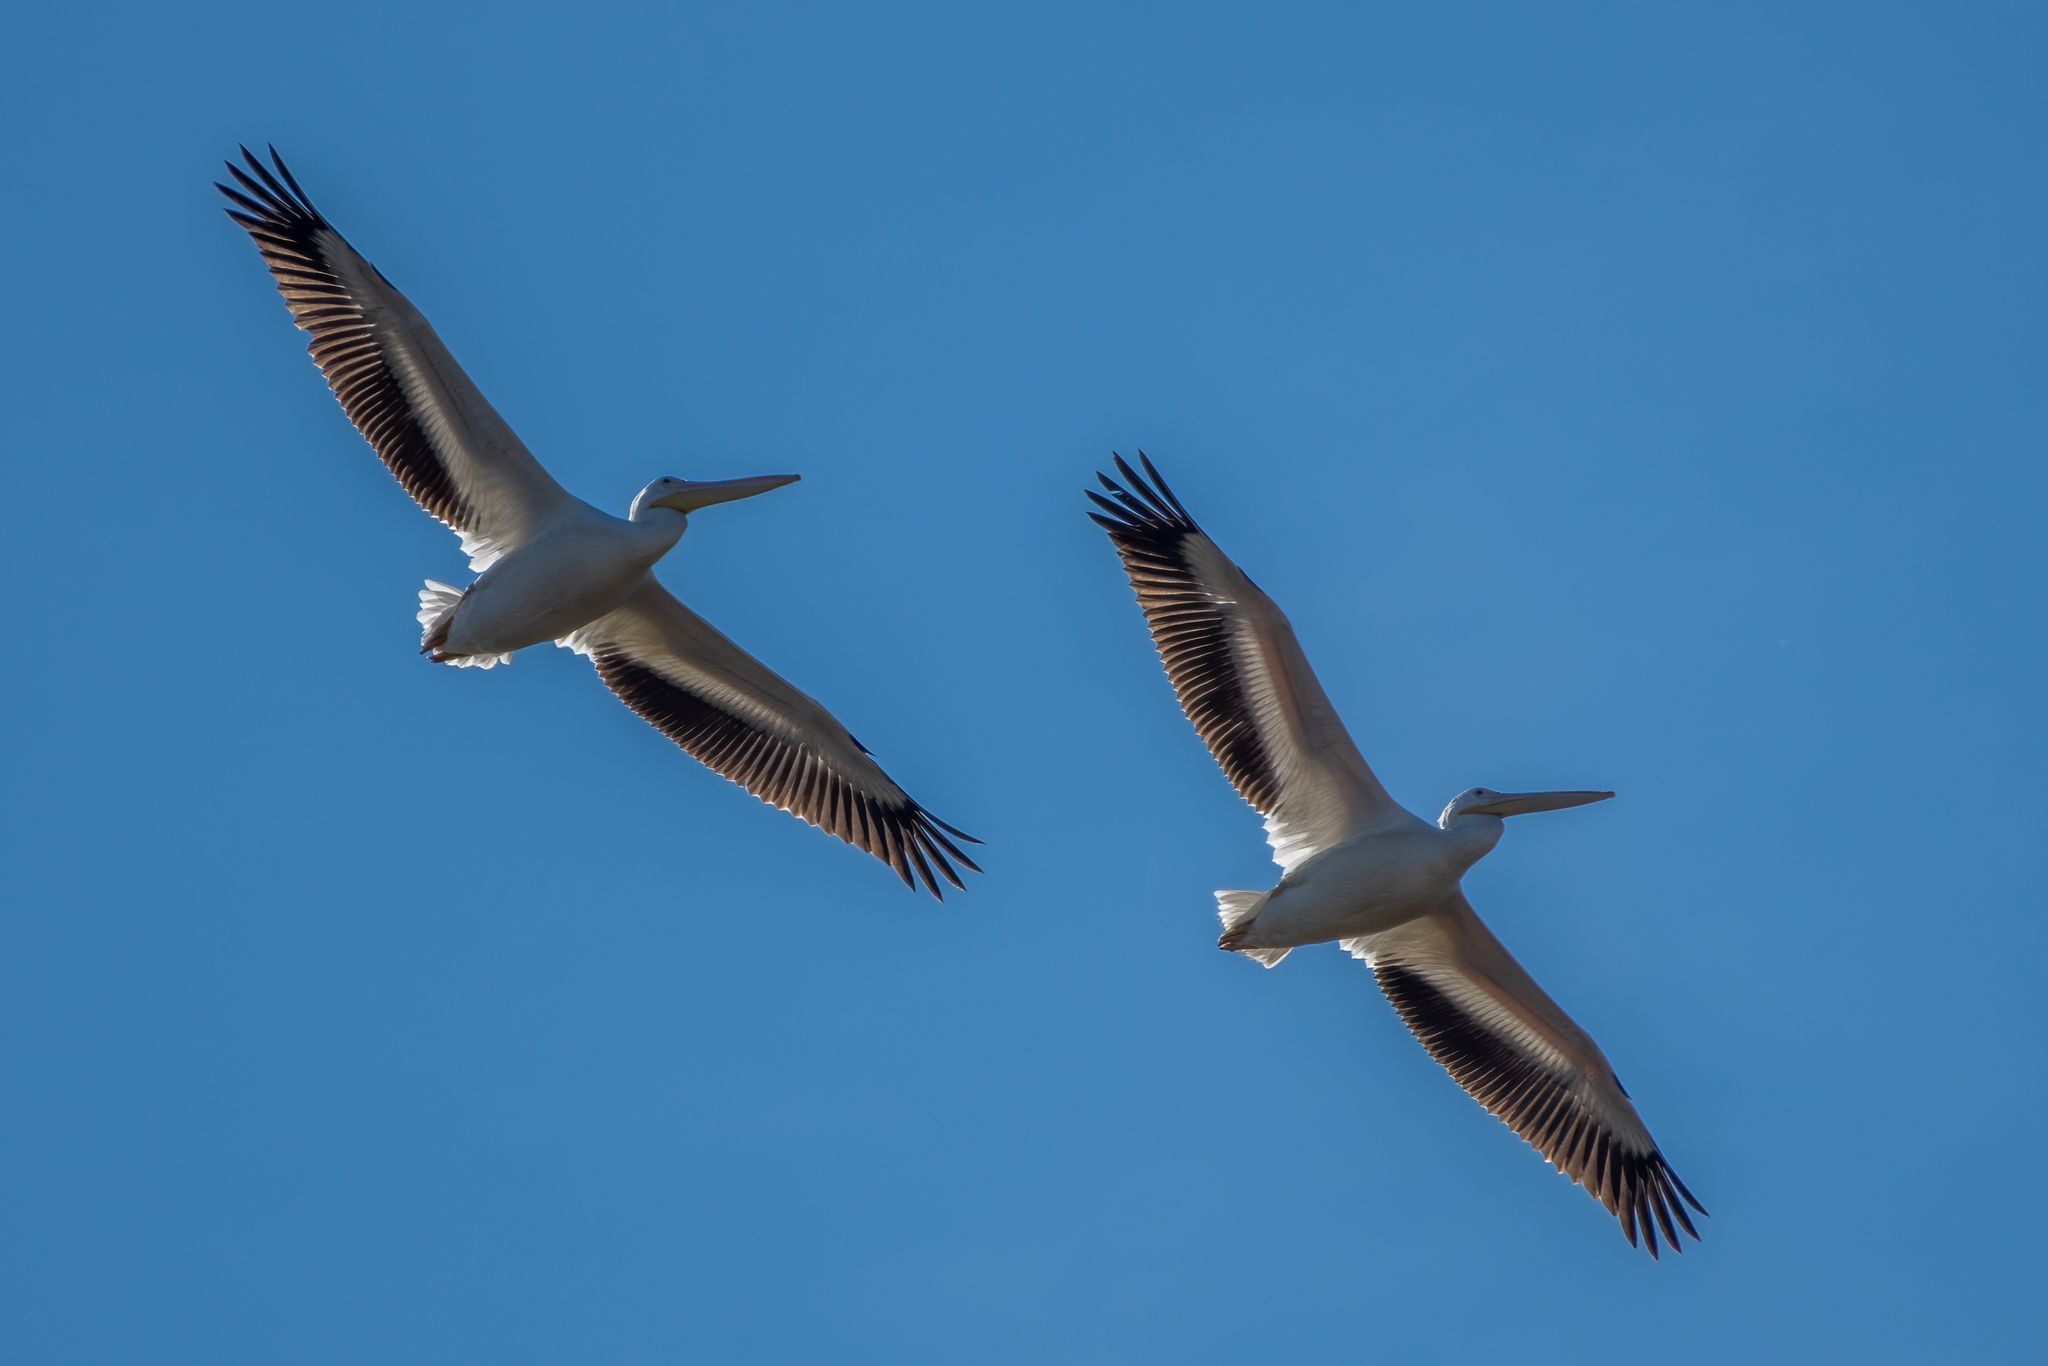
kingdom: Animalia
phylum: Chordata
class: Aves
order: Pelecaniformes
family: Pelecanidae
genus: Pelecanus
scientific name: Pelecanus erythrorhynchos
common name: American white pelican
